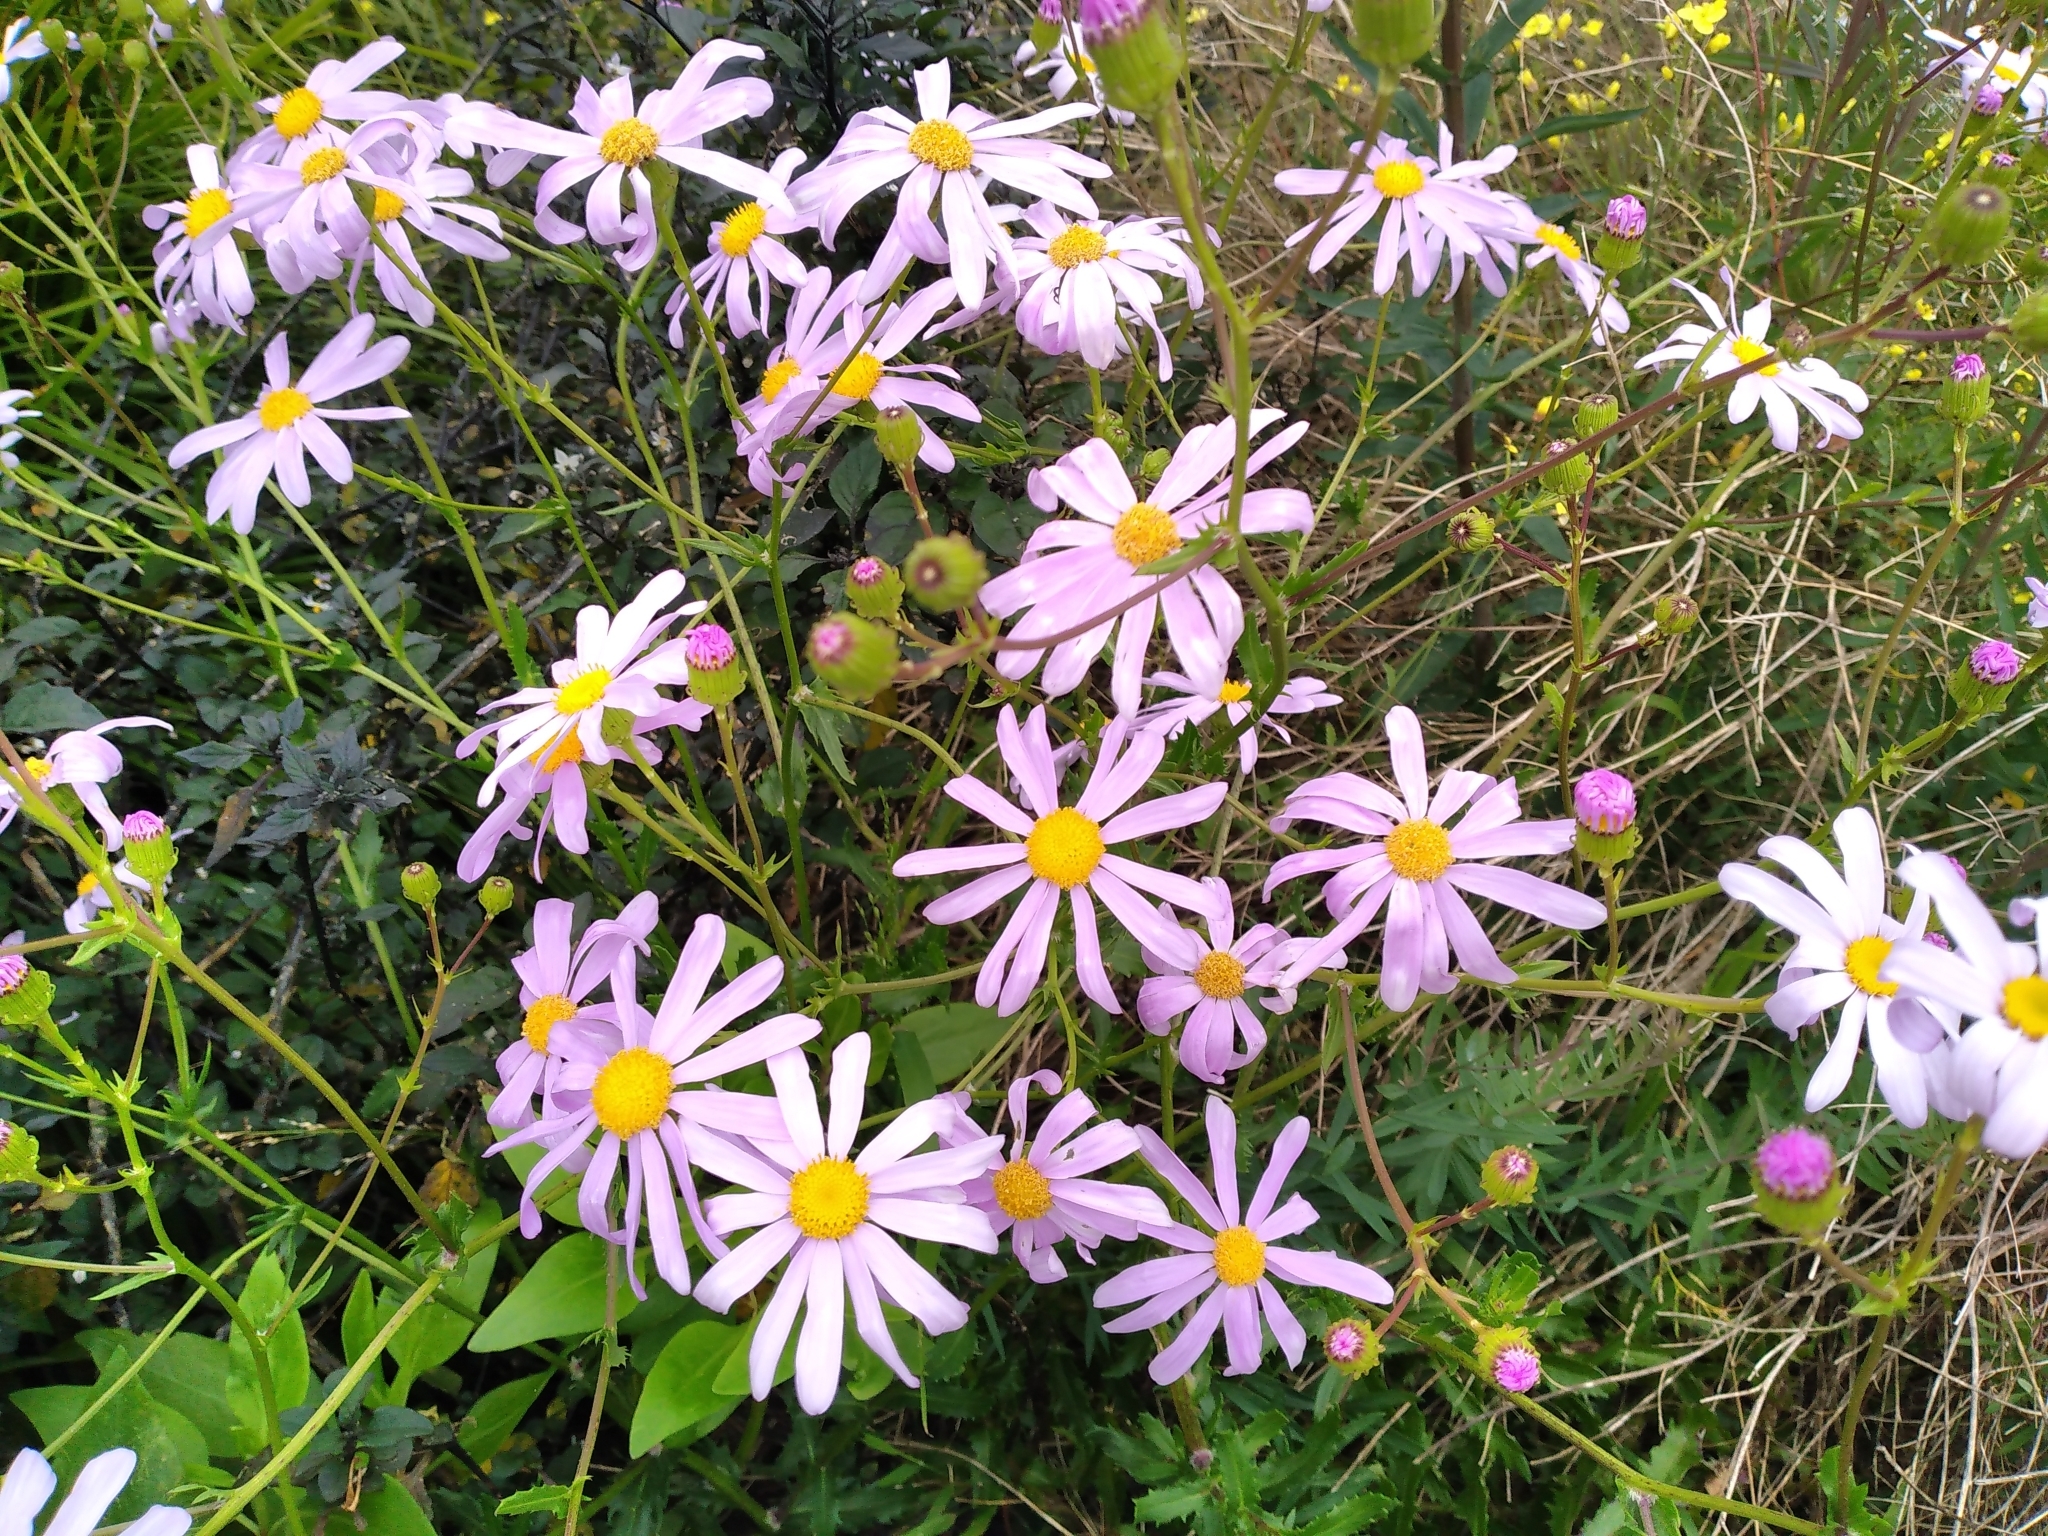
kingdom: Plantae
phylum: Tracheophyta
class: Magnoliopsida
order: Asterales
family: Asteraceae
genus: Senecio
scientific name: Senecio glastifolius
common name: Woad-leaved ragwort
